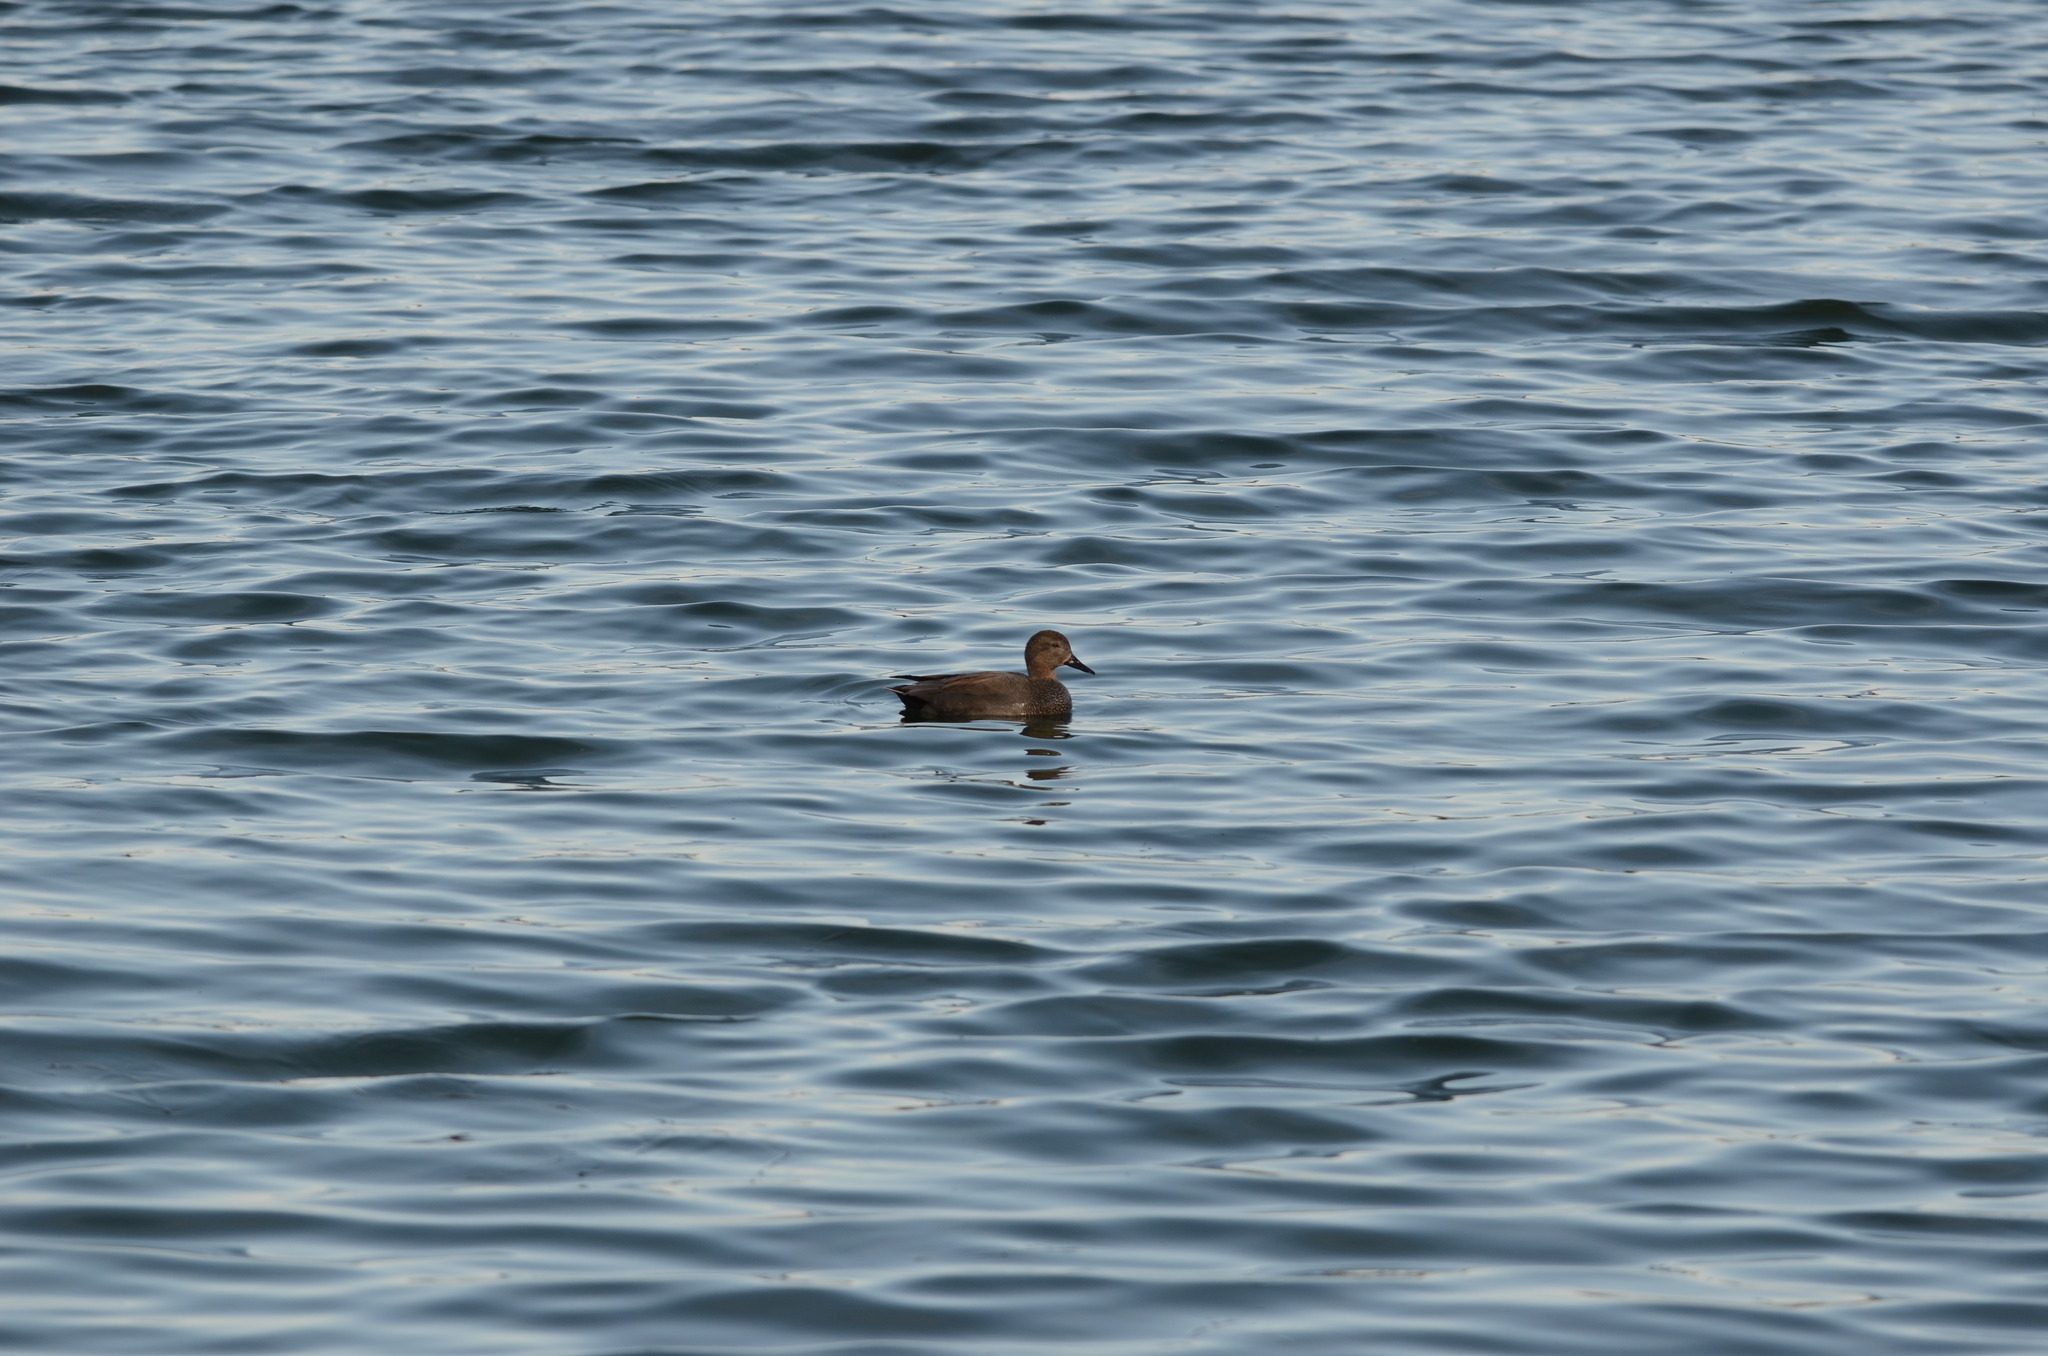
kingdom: Animalia
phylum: Chordata
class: Aves
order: Anseriformes
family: Anatidae
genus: Mareca
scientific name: Mareca strepera
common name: Gadwall
